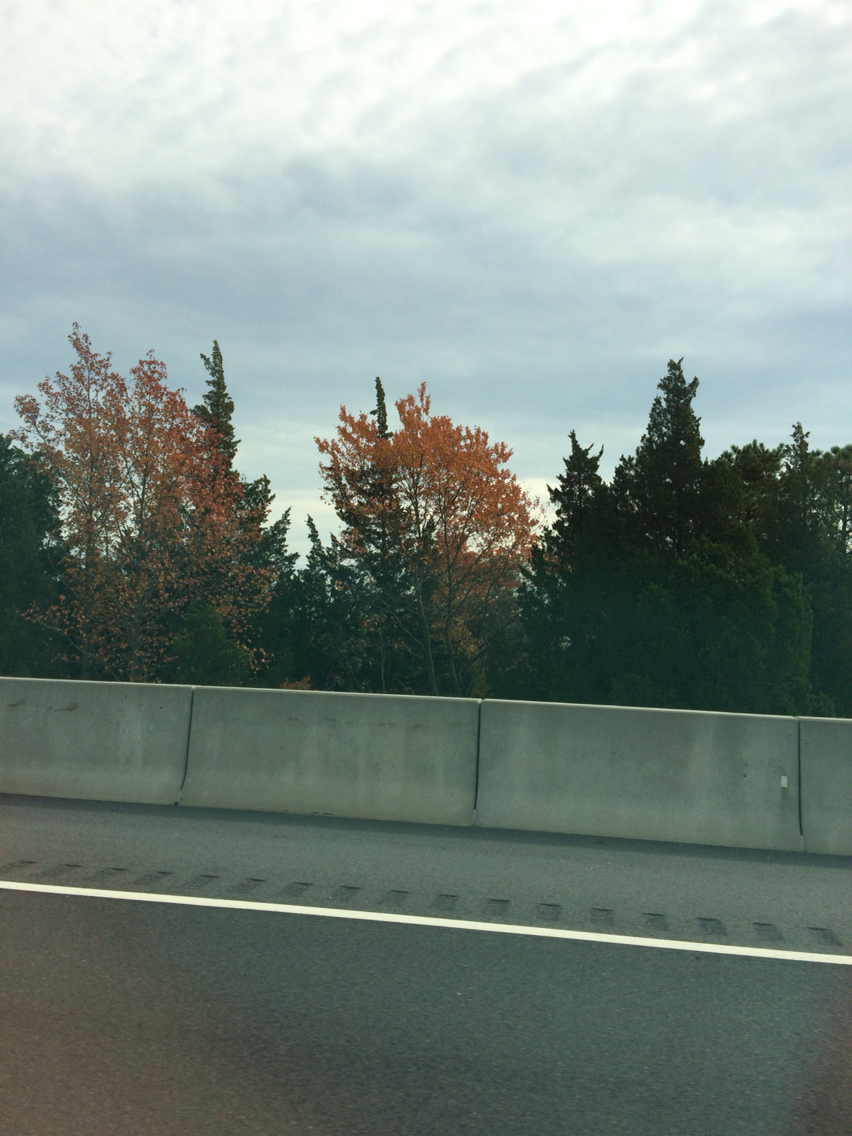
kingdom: Plantae
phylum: Tracheophyta
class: Pinopsida
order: Pinales
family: Cupressaceae
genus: Chamaecyparis
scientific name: Chamaecyparis thyoides
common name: Atlantic white cedar
